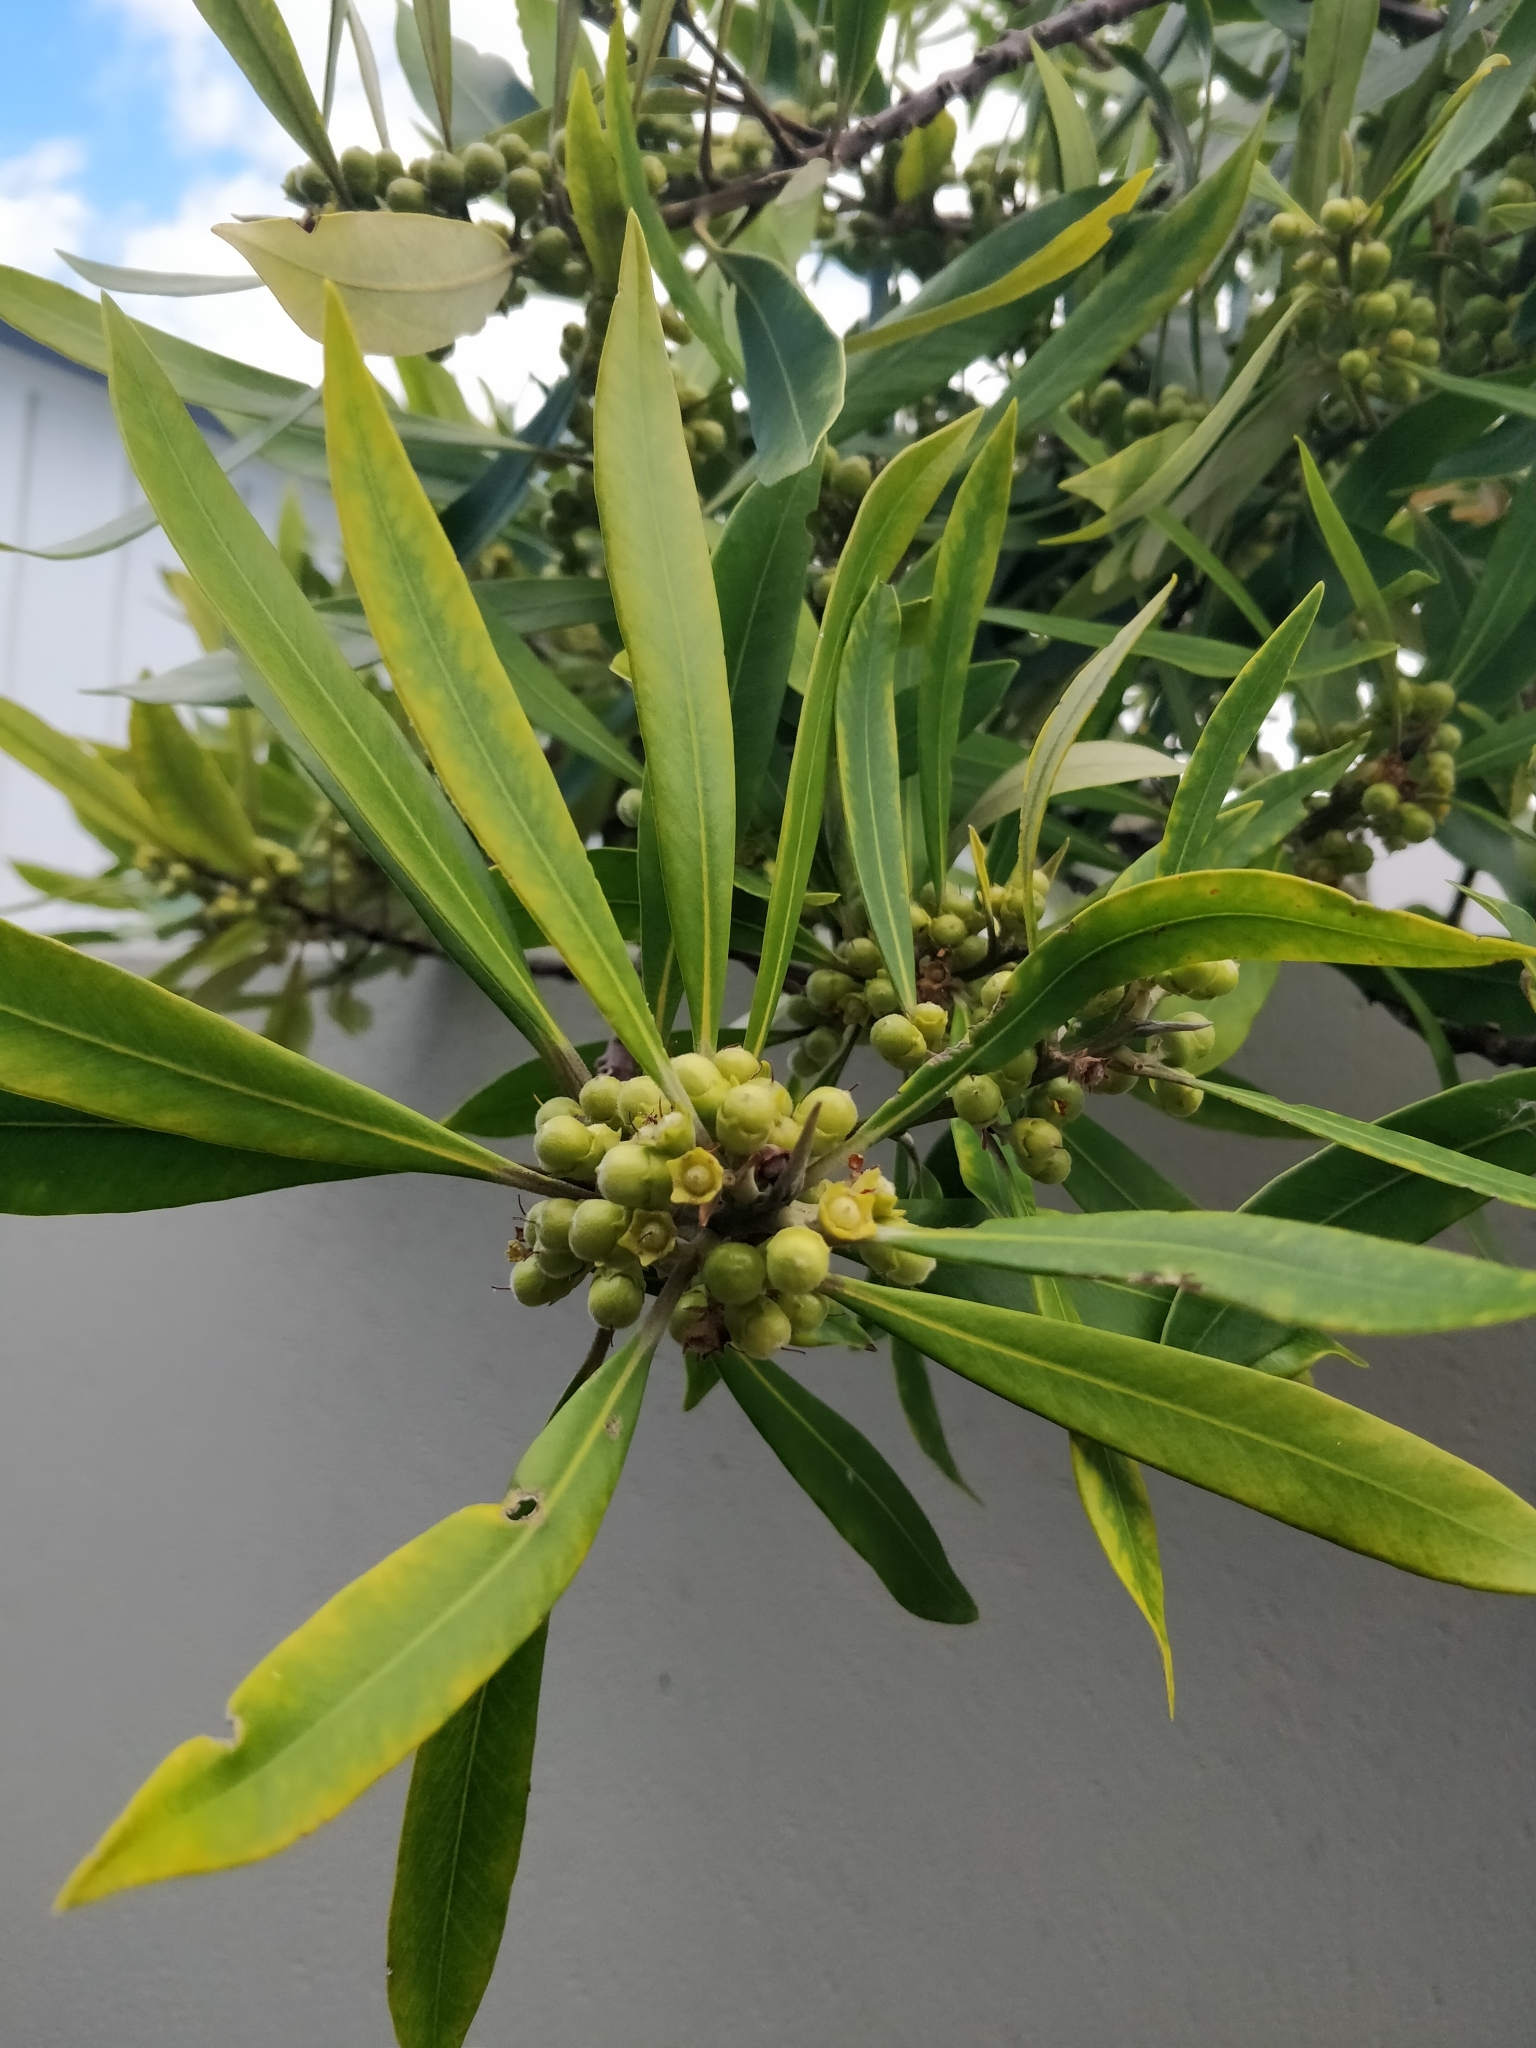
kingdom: Plantae
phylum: Tracheophyta
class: Magnoliopsida
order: Apiales
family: Araliaceae
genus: Pseudopanax
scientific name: Pseudopanax crassifolius
